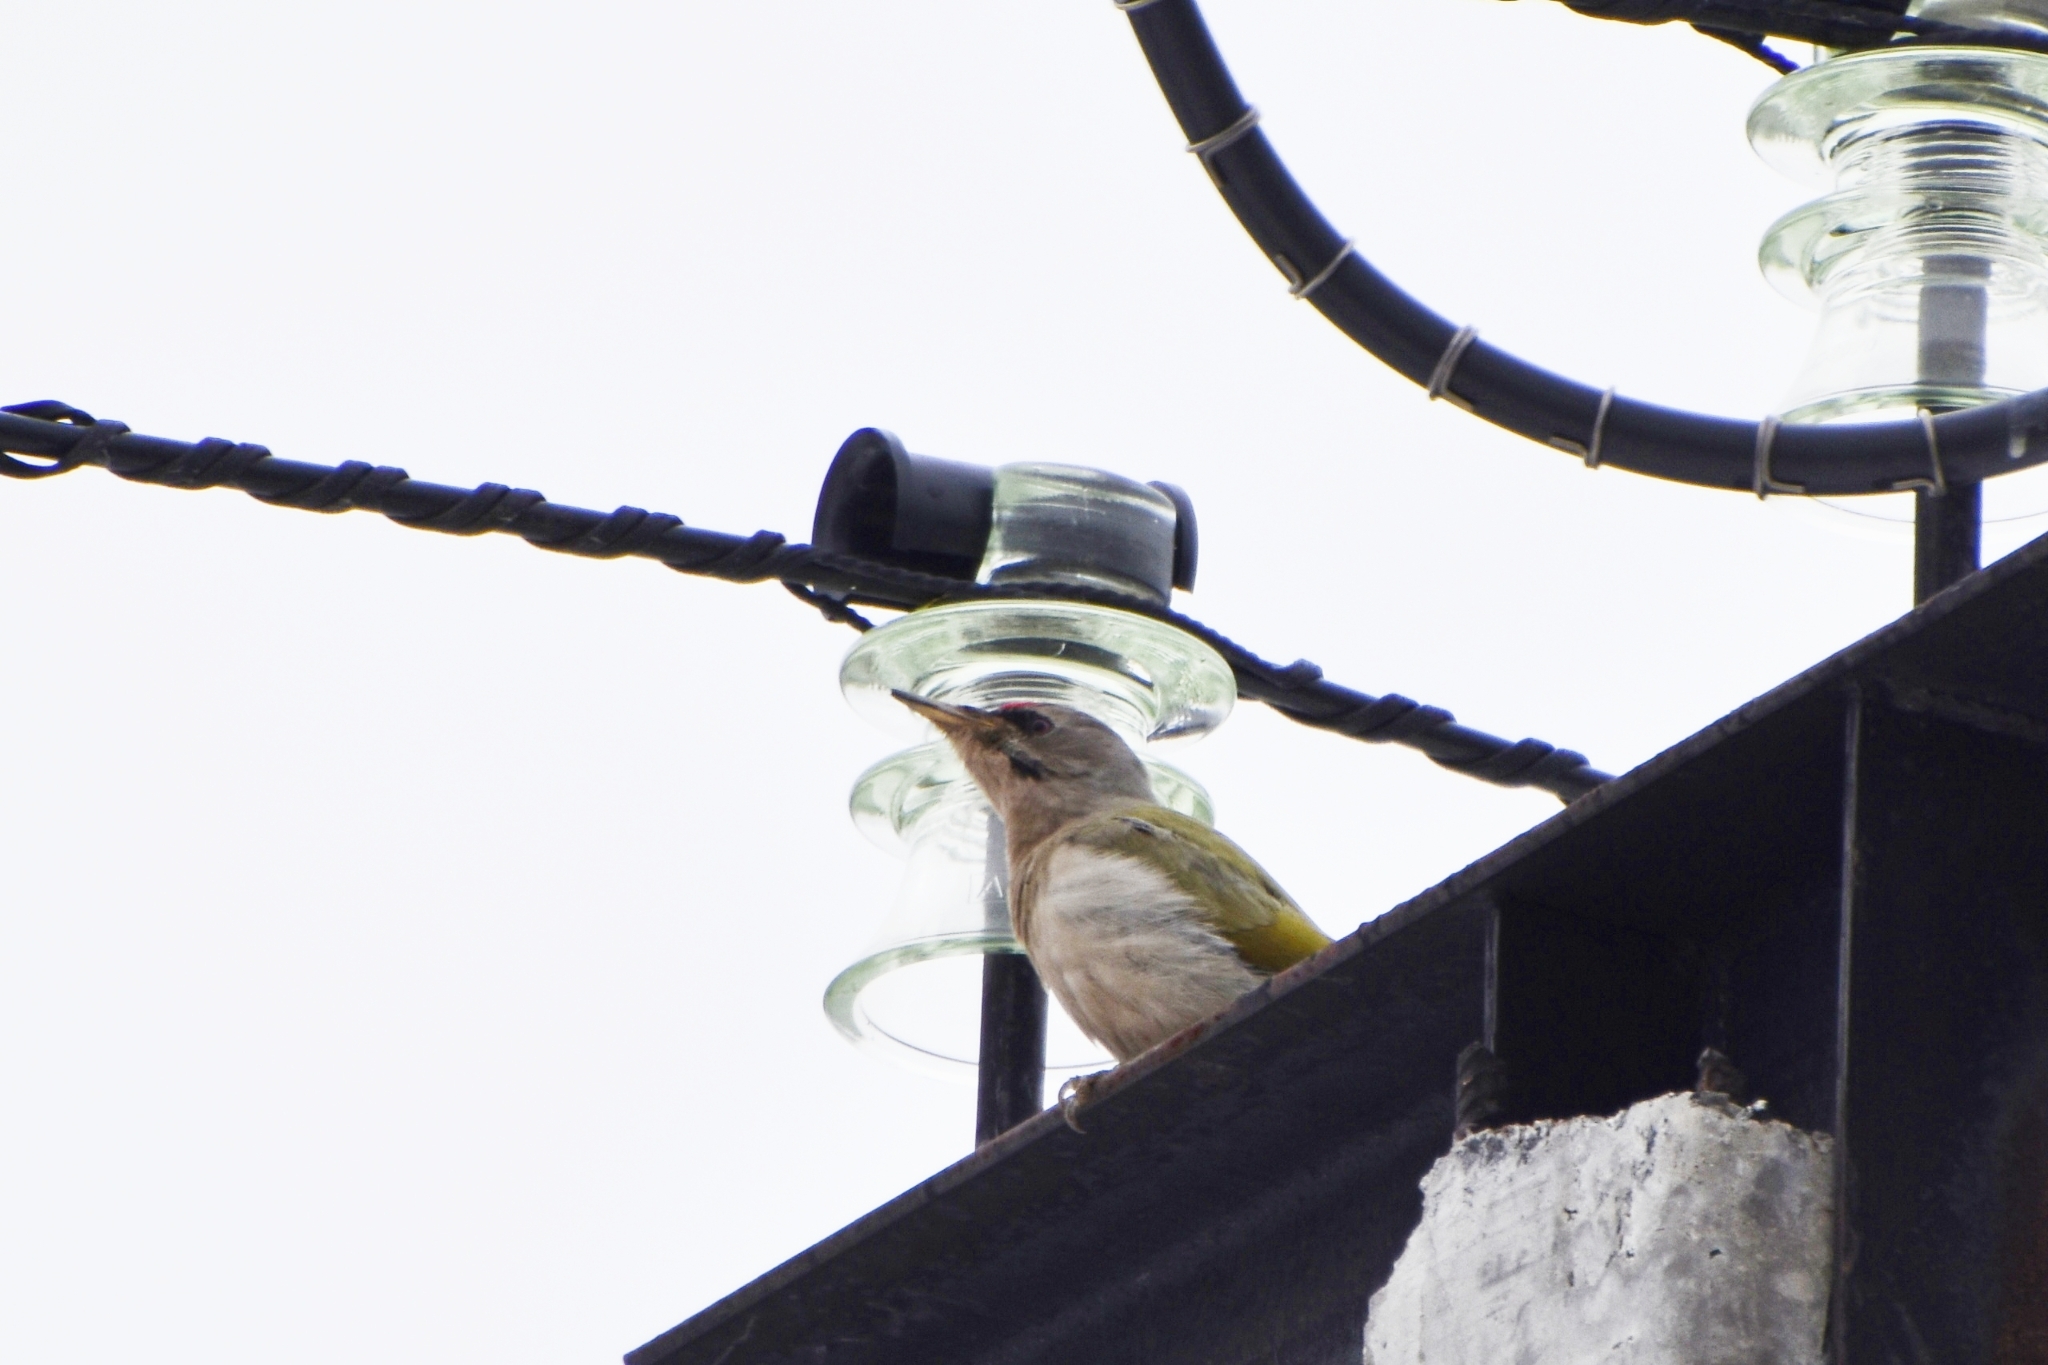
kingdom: Animalia
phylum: Chordata
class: Aves
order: Piciformes
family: Picidae
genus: Picus
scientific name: Picus canus
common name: Grey-headed woodpecker
